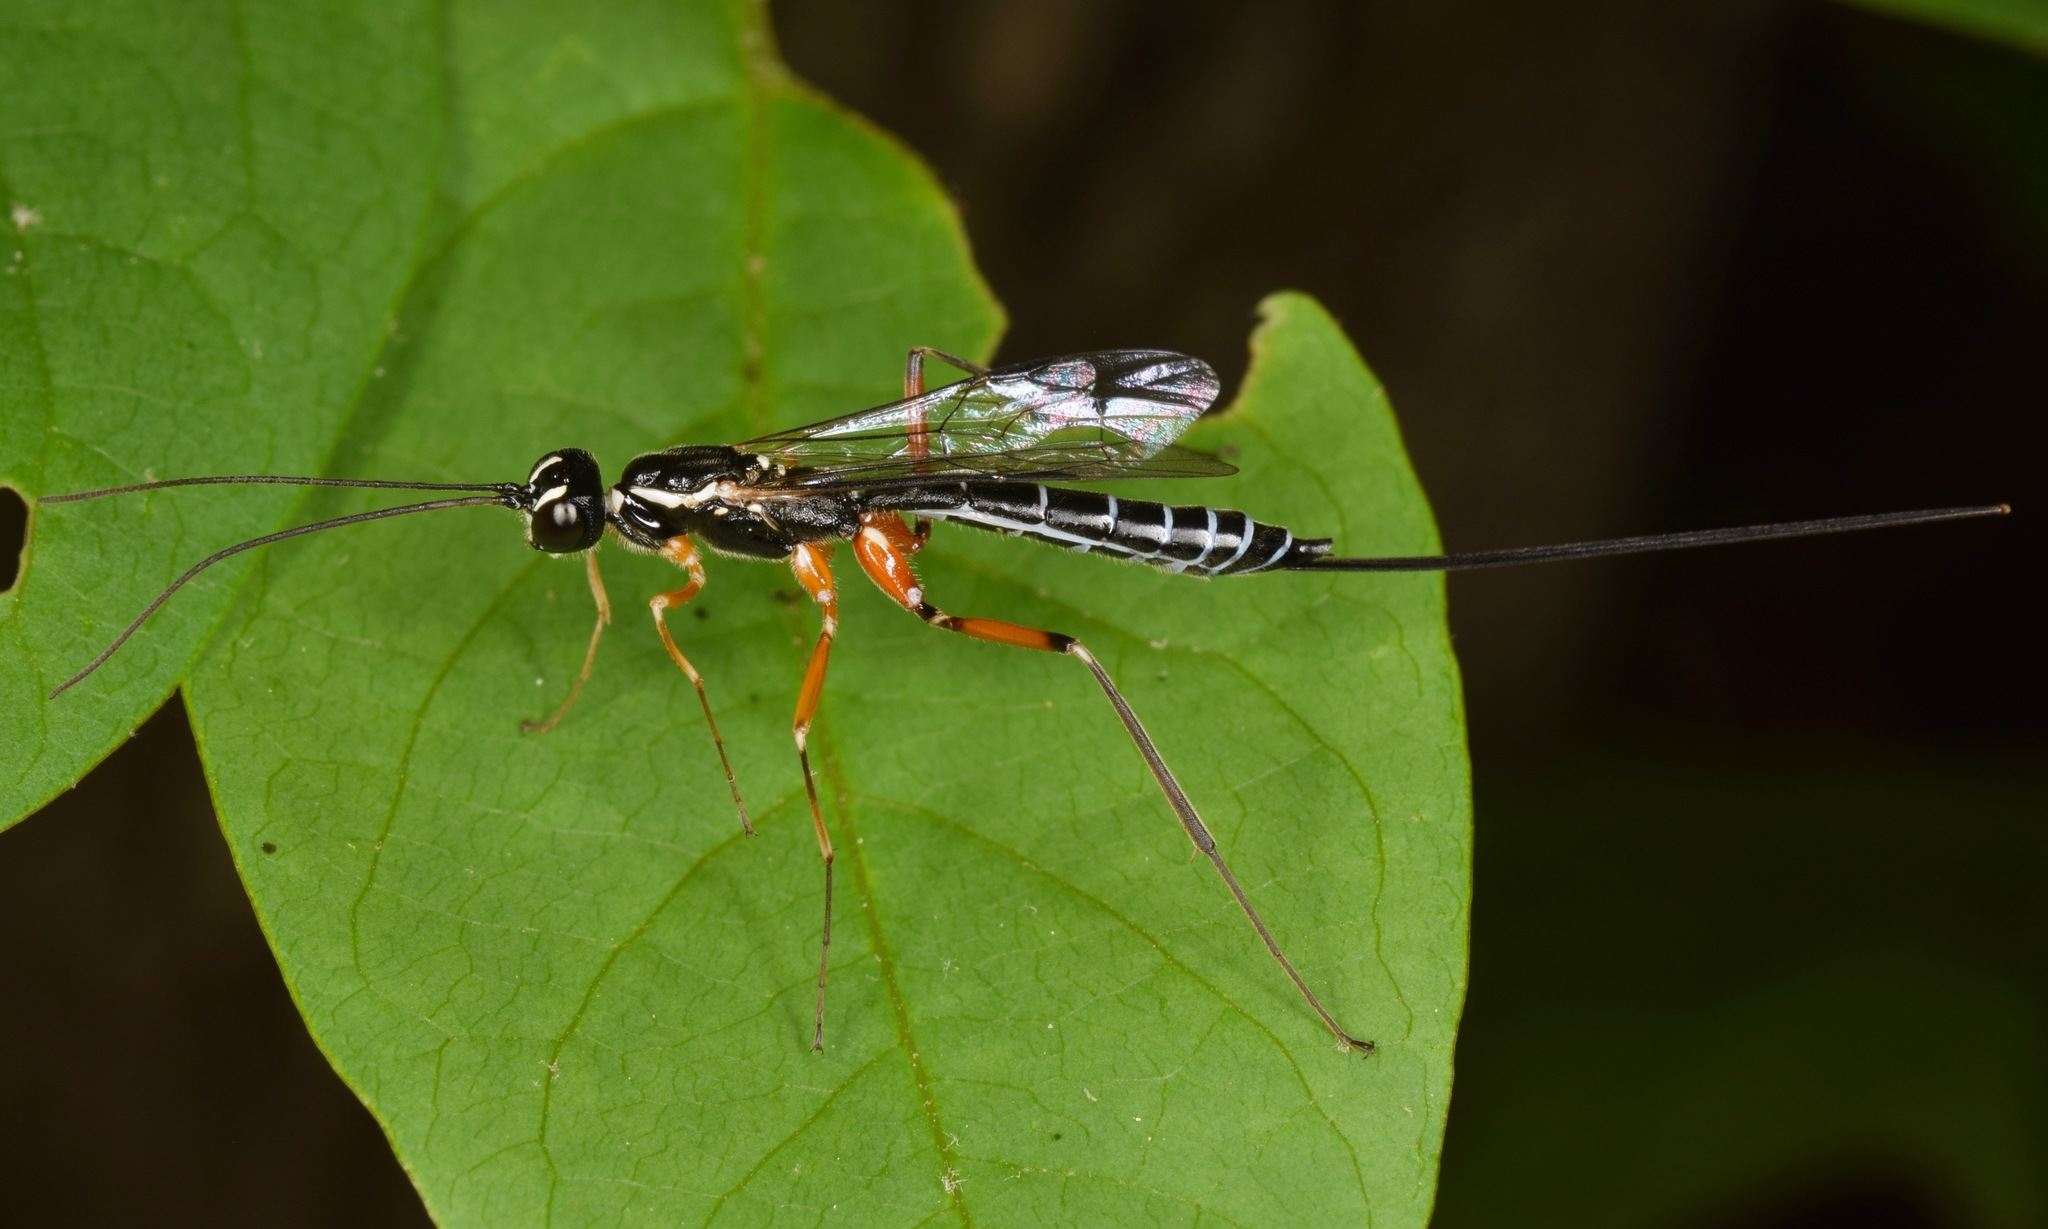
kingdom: Animalia
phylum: Arthropoda
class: Insecta
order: Hymenoptera
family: Ichneumonidae
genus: Podoschistus
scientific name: Podoschistus vittifrons
